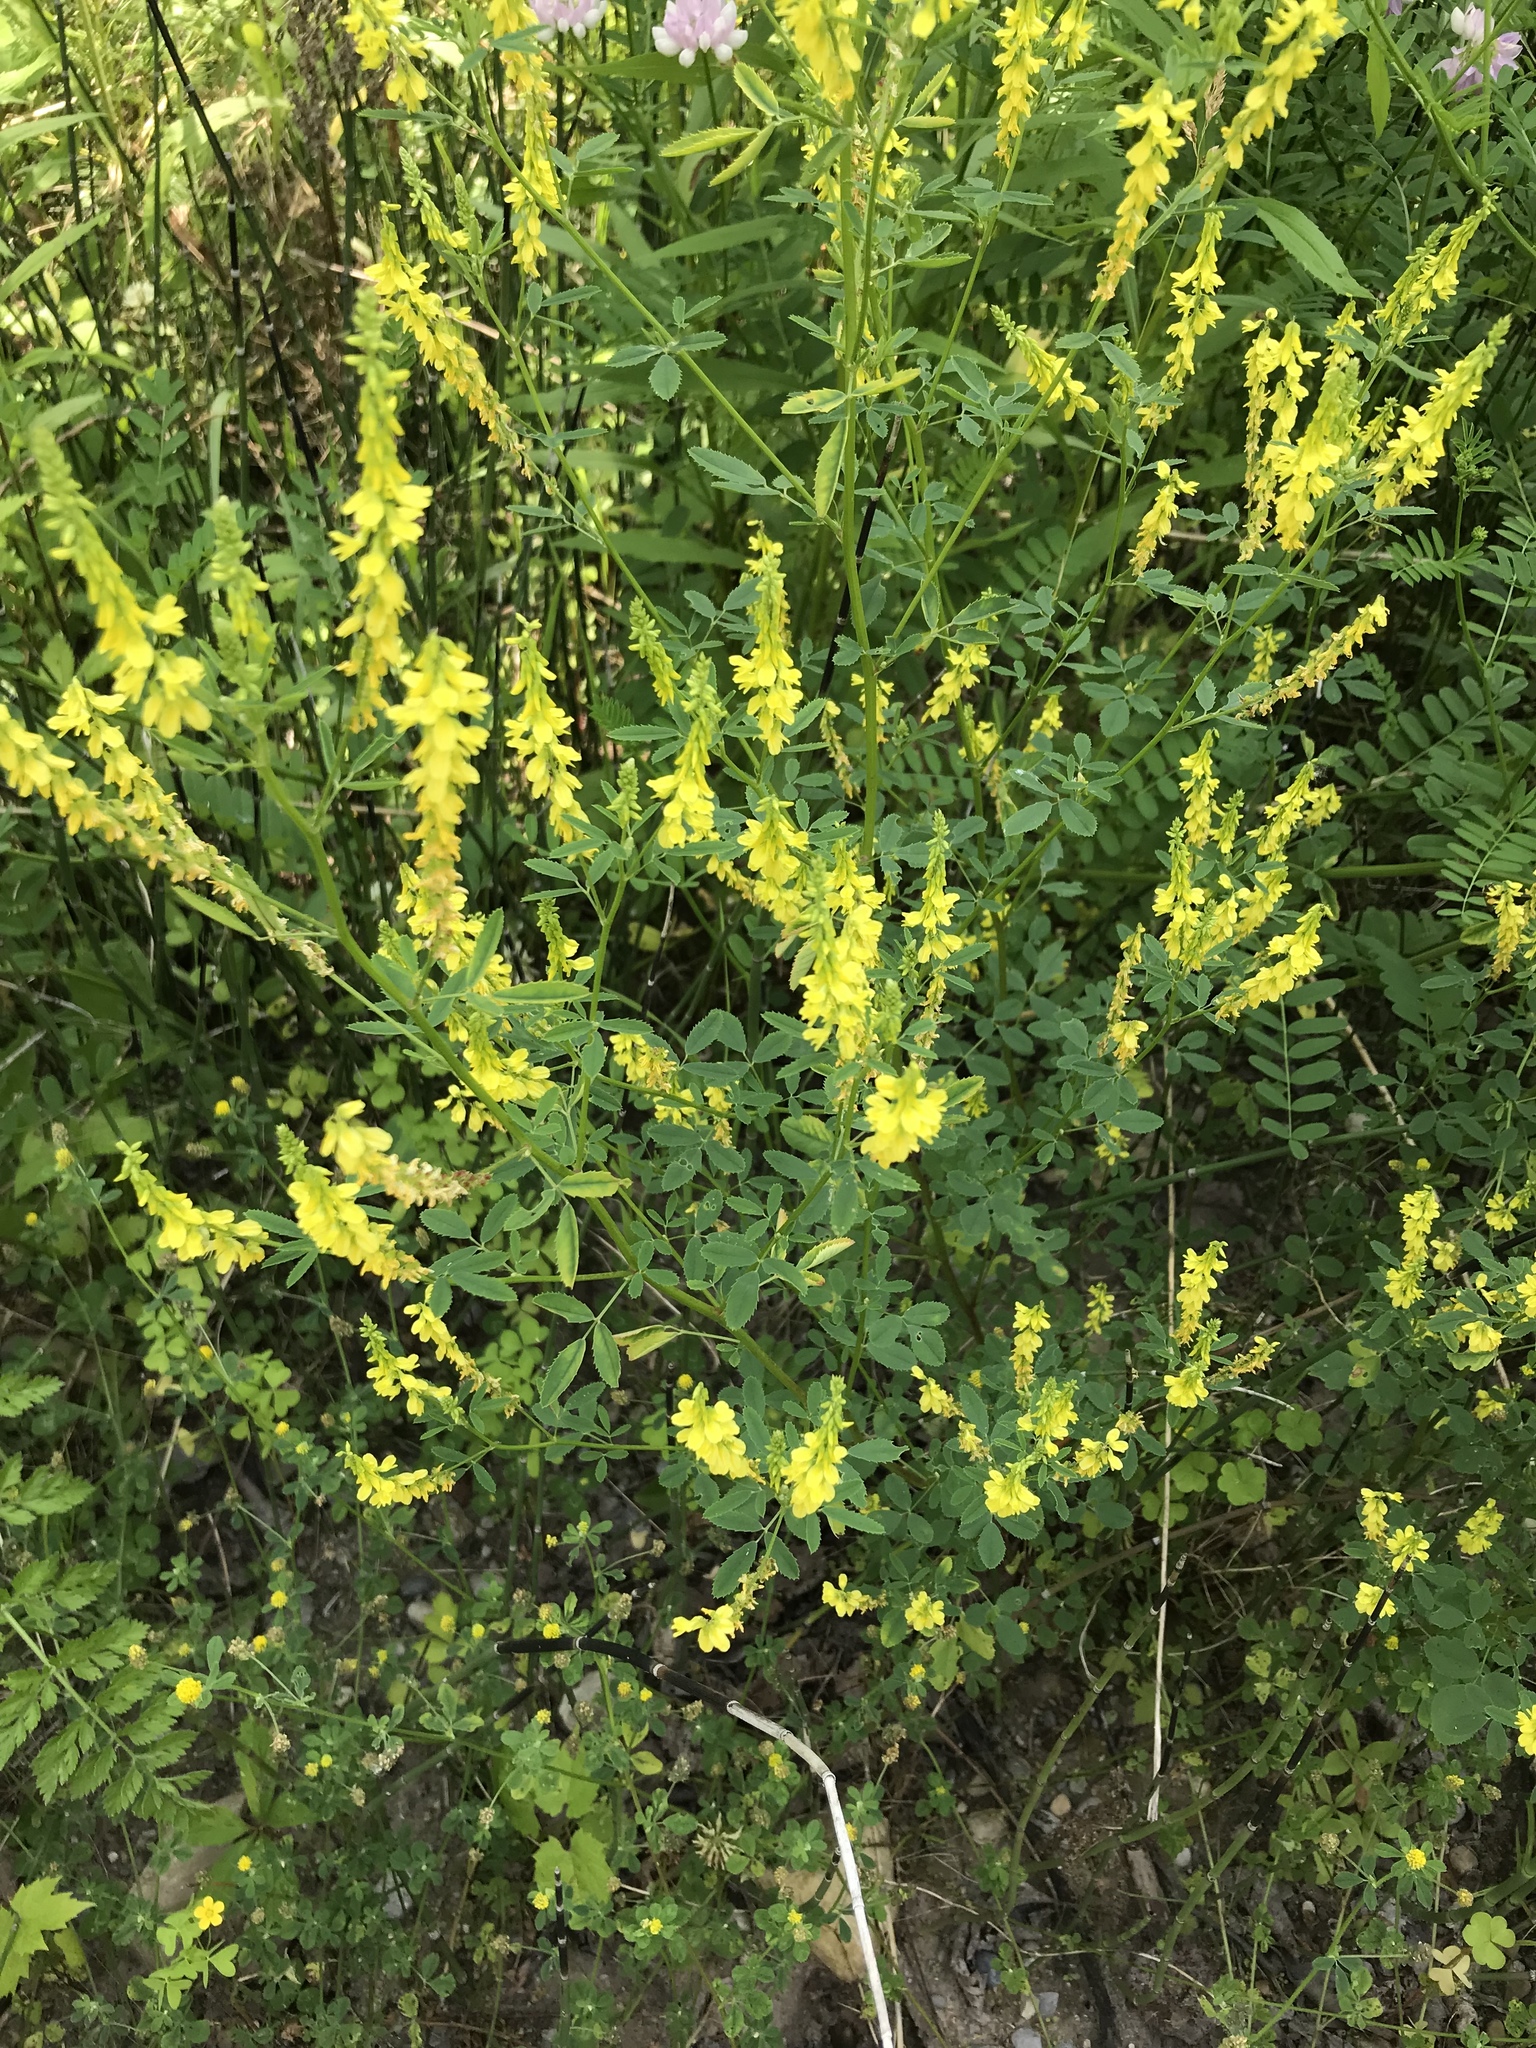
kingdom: Plantae
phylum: Tracheophyta
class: Magnoliopsida
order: Fabales
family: Fabaceae
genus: Melilotus
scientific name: Melilotus officinalis
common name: Sweetclover
